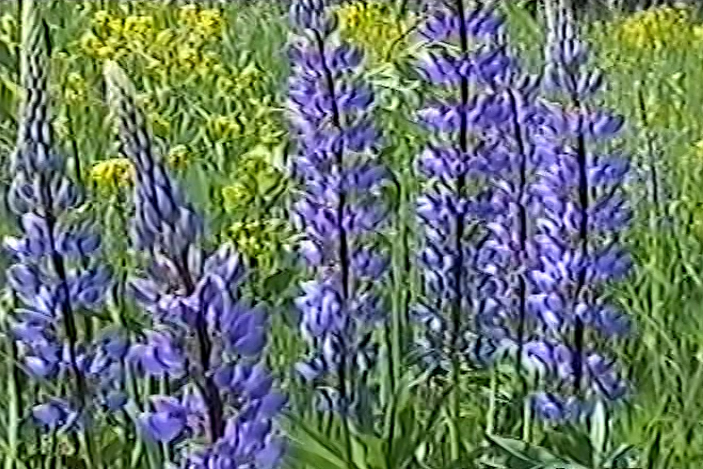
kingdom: Plantae
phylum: Tracheophyta
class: Magnoliopsida
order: Fabales
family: Fabaceae
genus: Lupinus
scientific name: Lupinus polyphyllus
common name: Garden lupin
